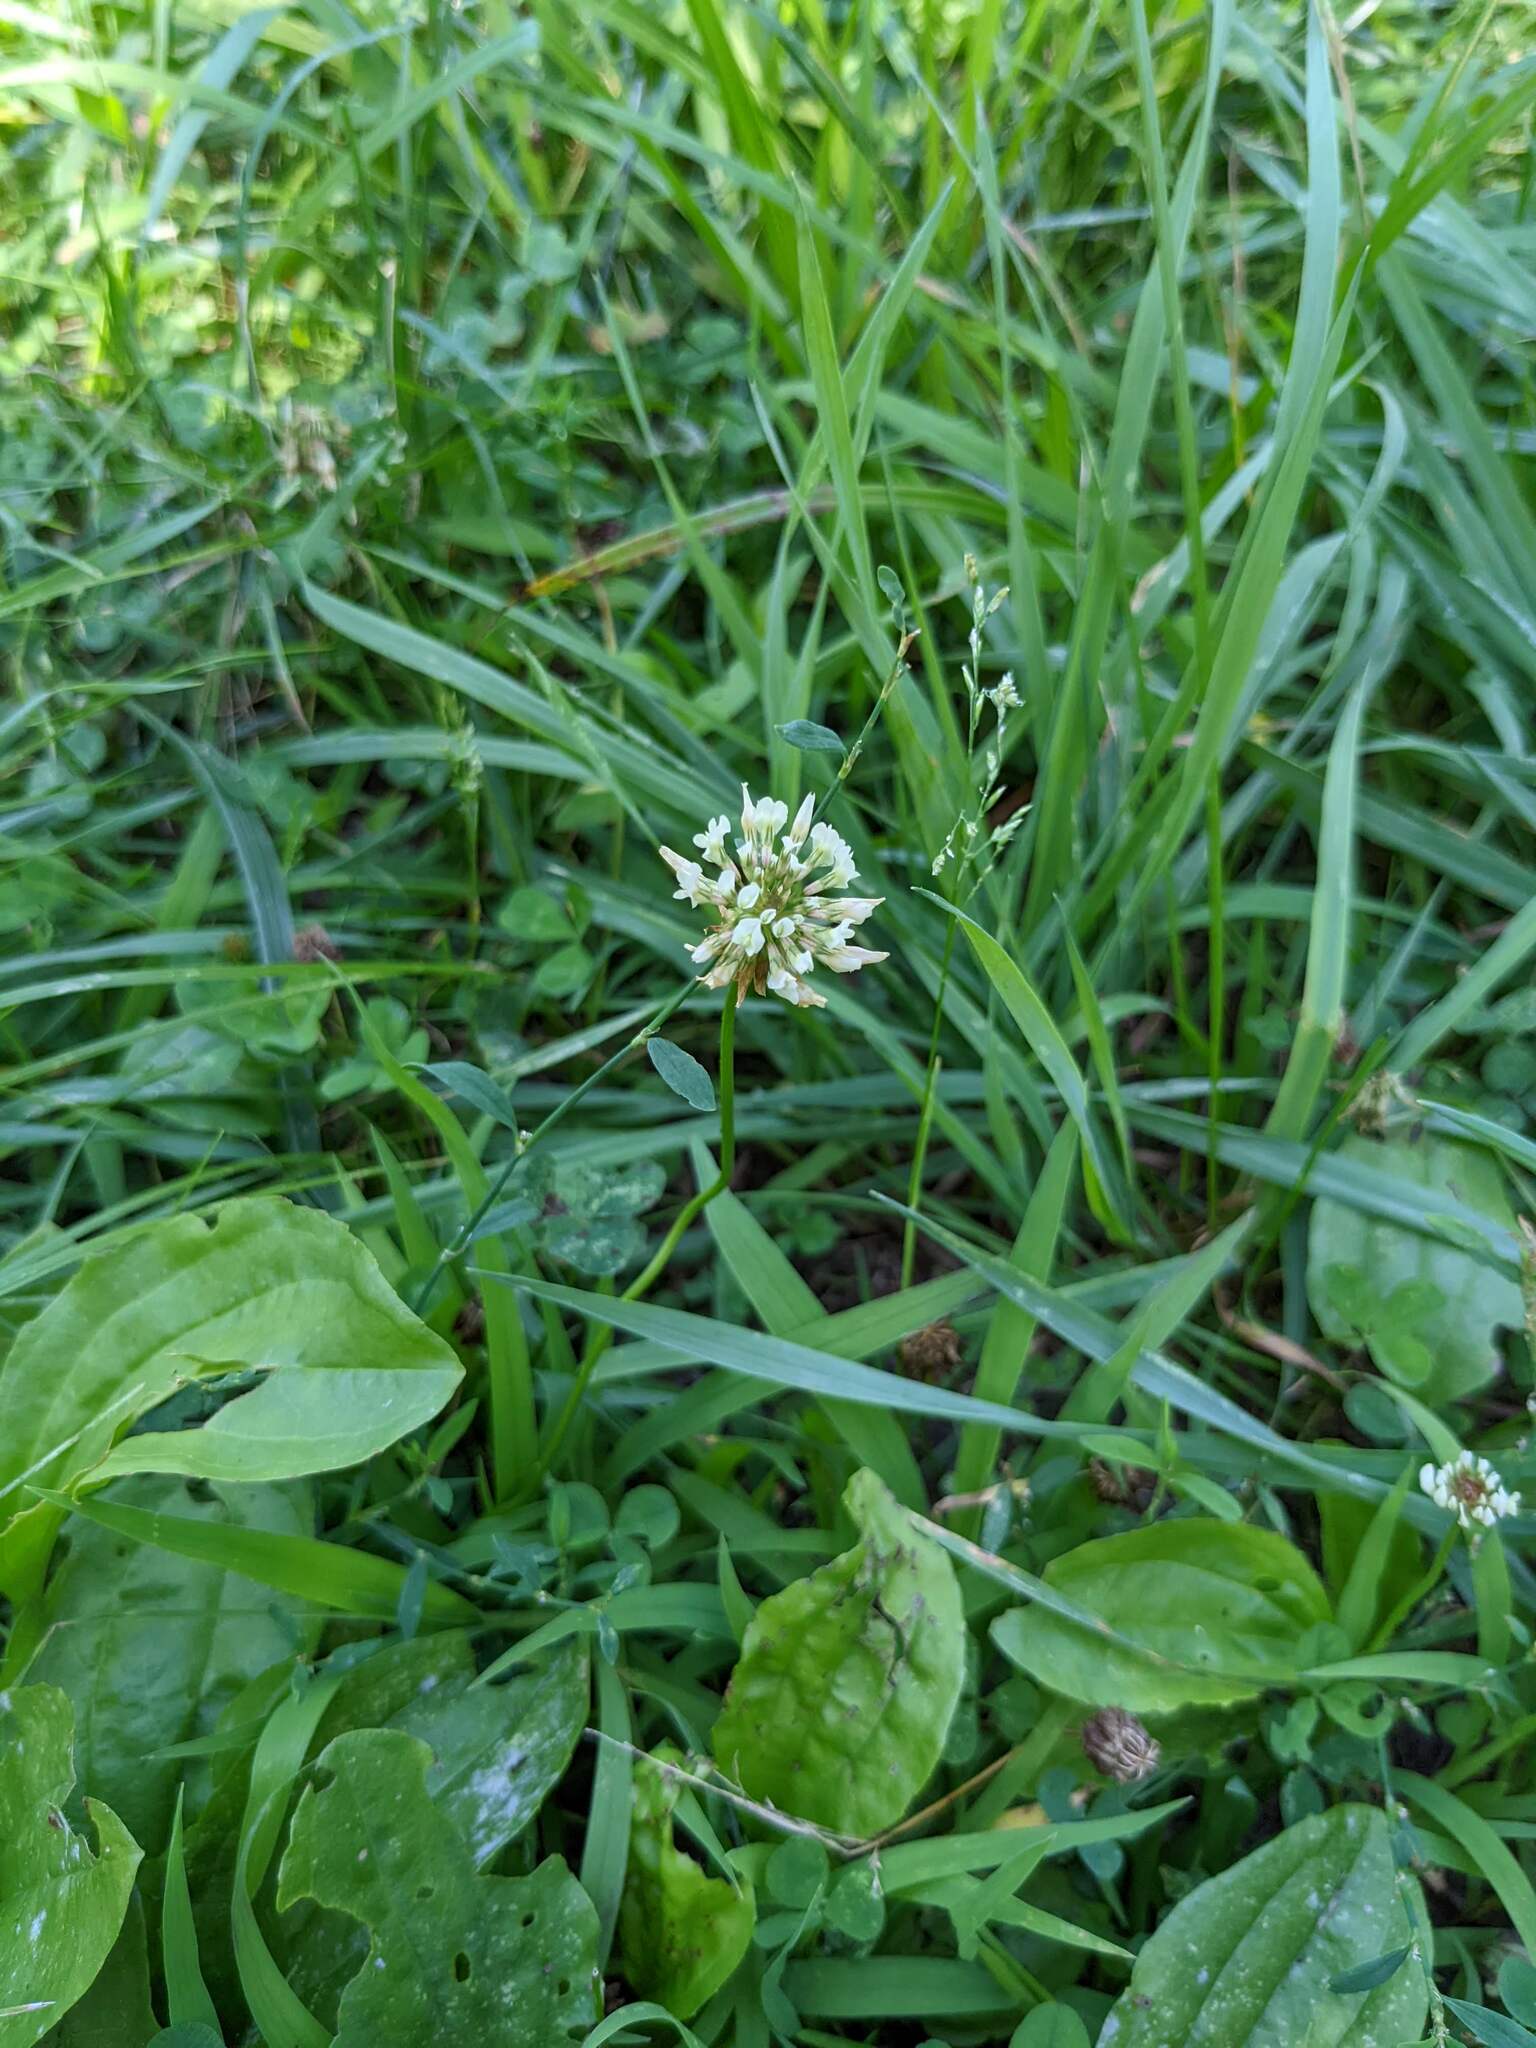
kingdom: Plantae
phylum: Tracheophyta
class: Magnoliopsida
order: Fabales
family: Fabaceae
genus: Trifolium
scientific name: Trifolium repens
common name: White clover
